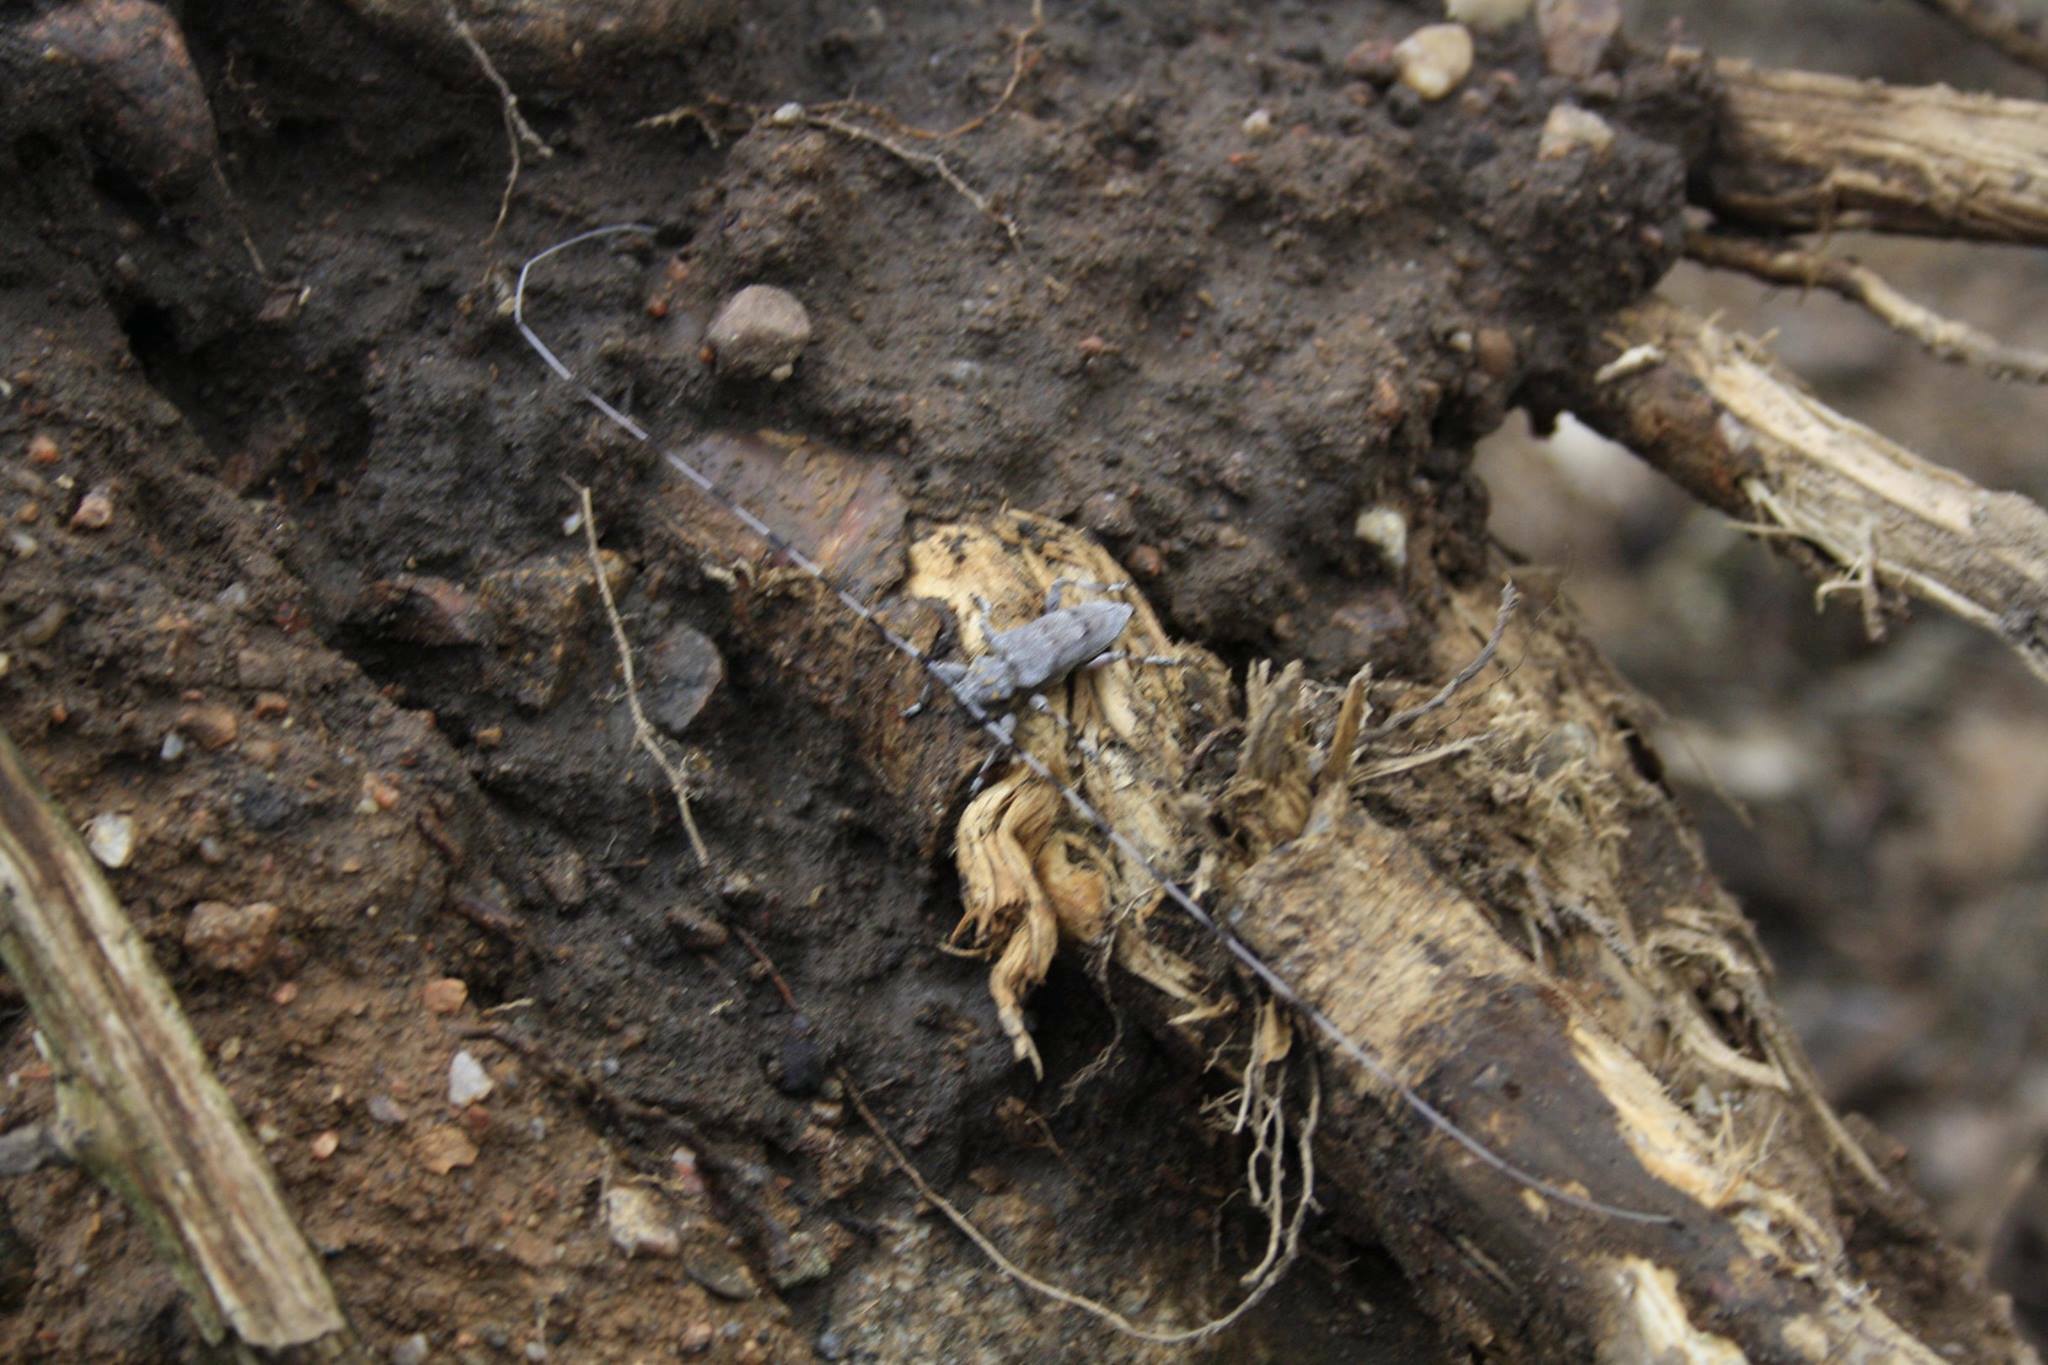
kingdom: Animalia
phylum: Arthropoda
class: Insecta
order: Coleoptera
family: Cerambycidae
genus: Acanthocinus
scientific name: Acanthocinus aedilis
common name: Timberman beetle
